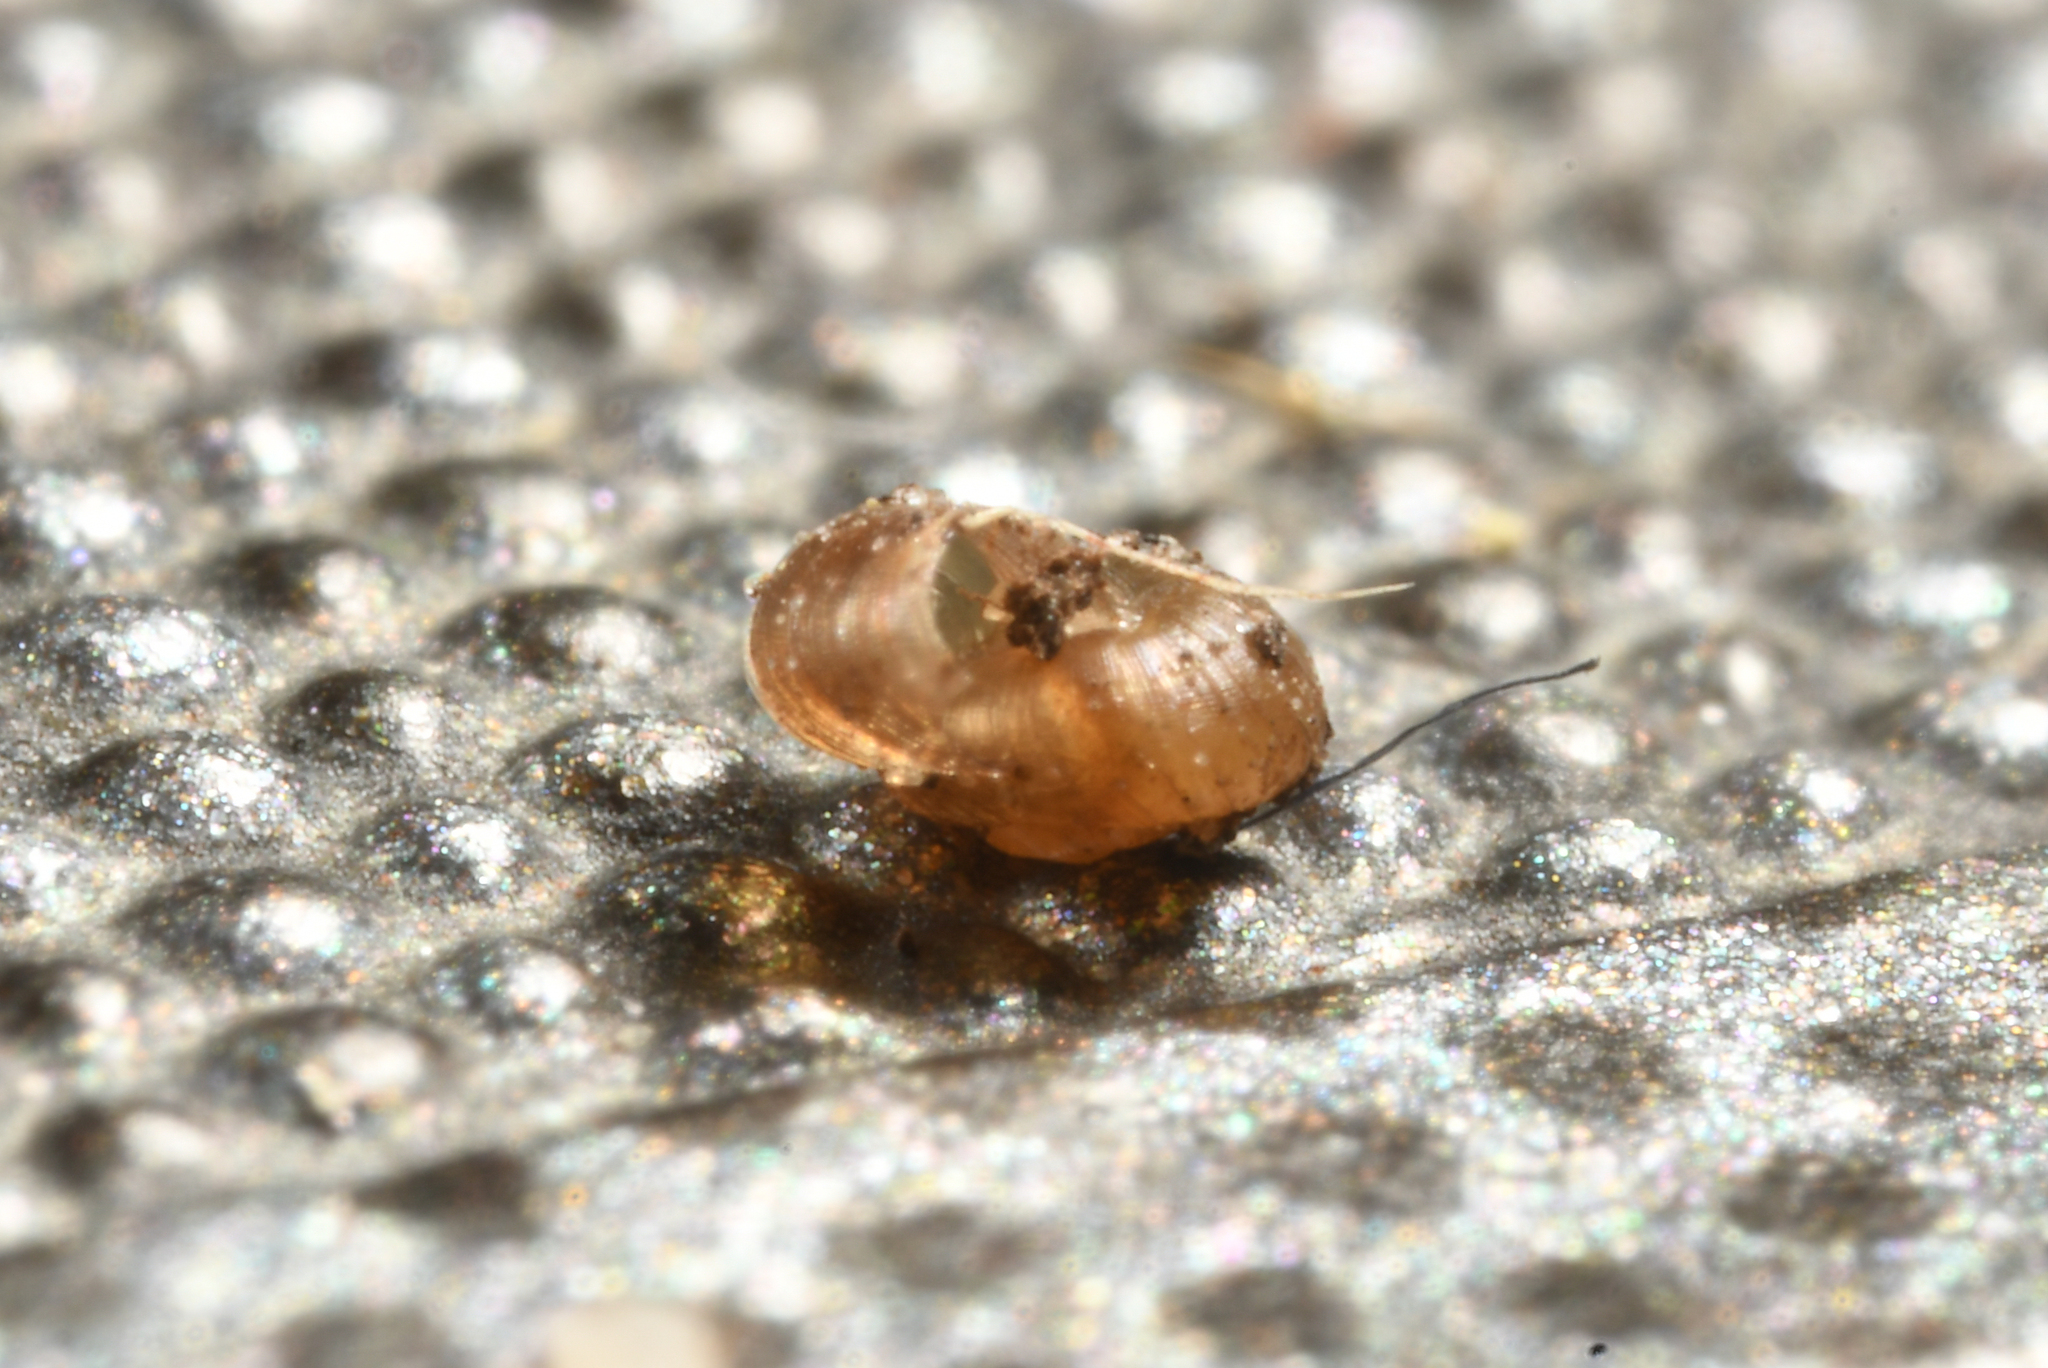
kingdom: Animalia
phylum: Mollusca
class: Gastropoda
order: Stylommatophora
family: Punctidae
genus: Paralaoma
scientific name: Paralaoma servilis
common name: Pinhead spot
